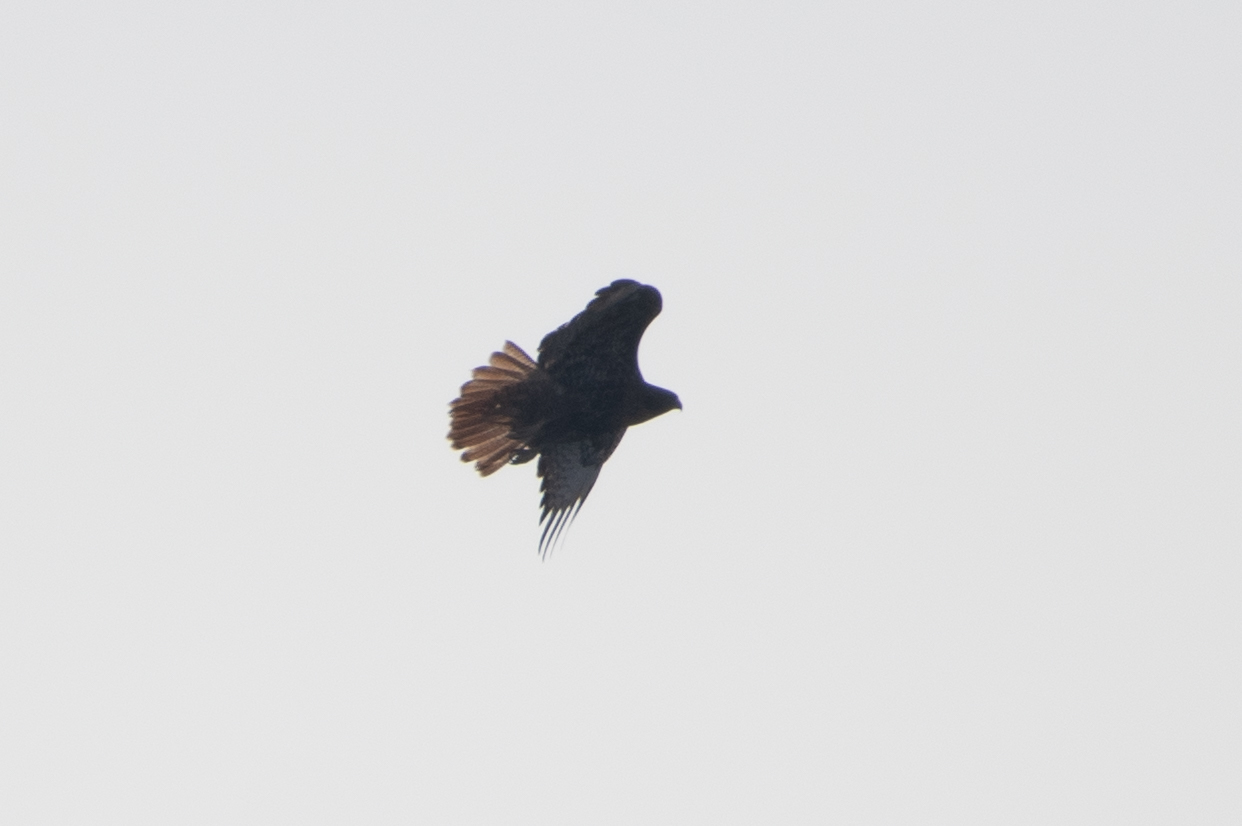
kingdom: Animalia
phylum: Chordata
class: Aves
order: Accipitriformes
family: Accipitridae
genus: Buteo
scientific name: Buteo jamaicensis
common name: Red-tailed hawk
